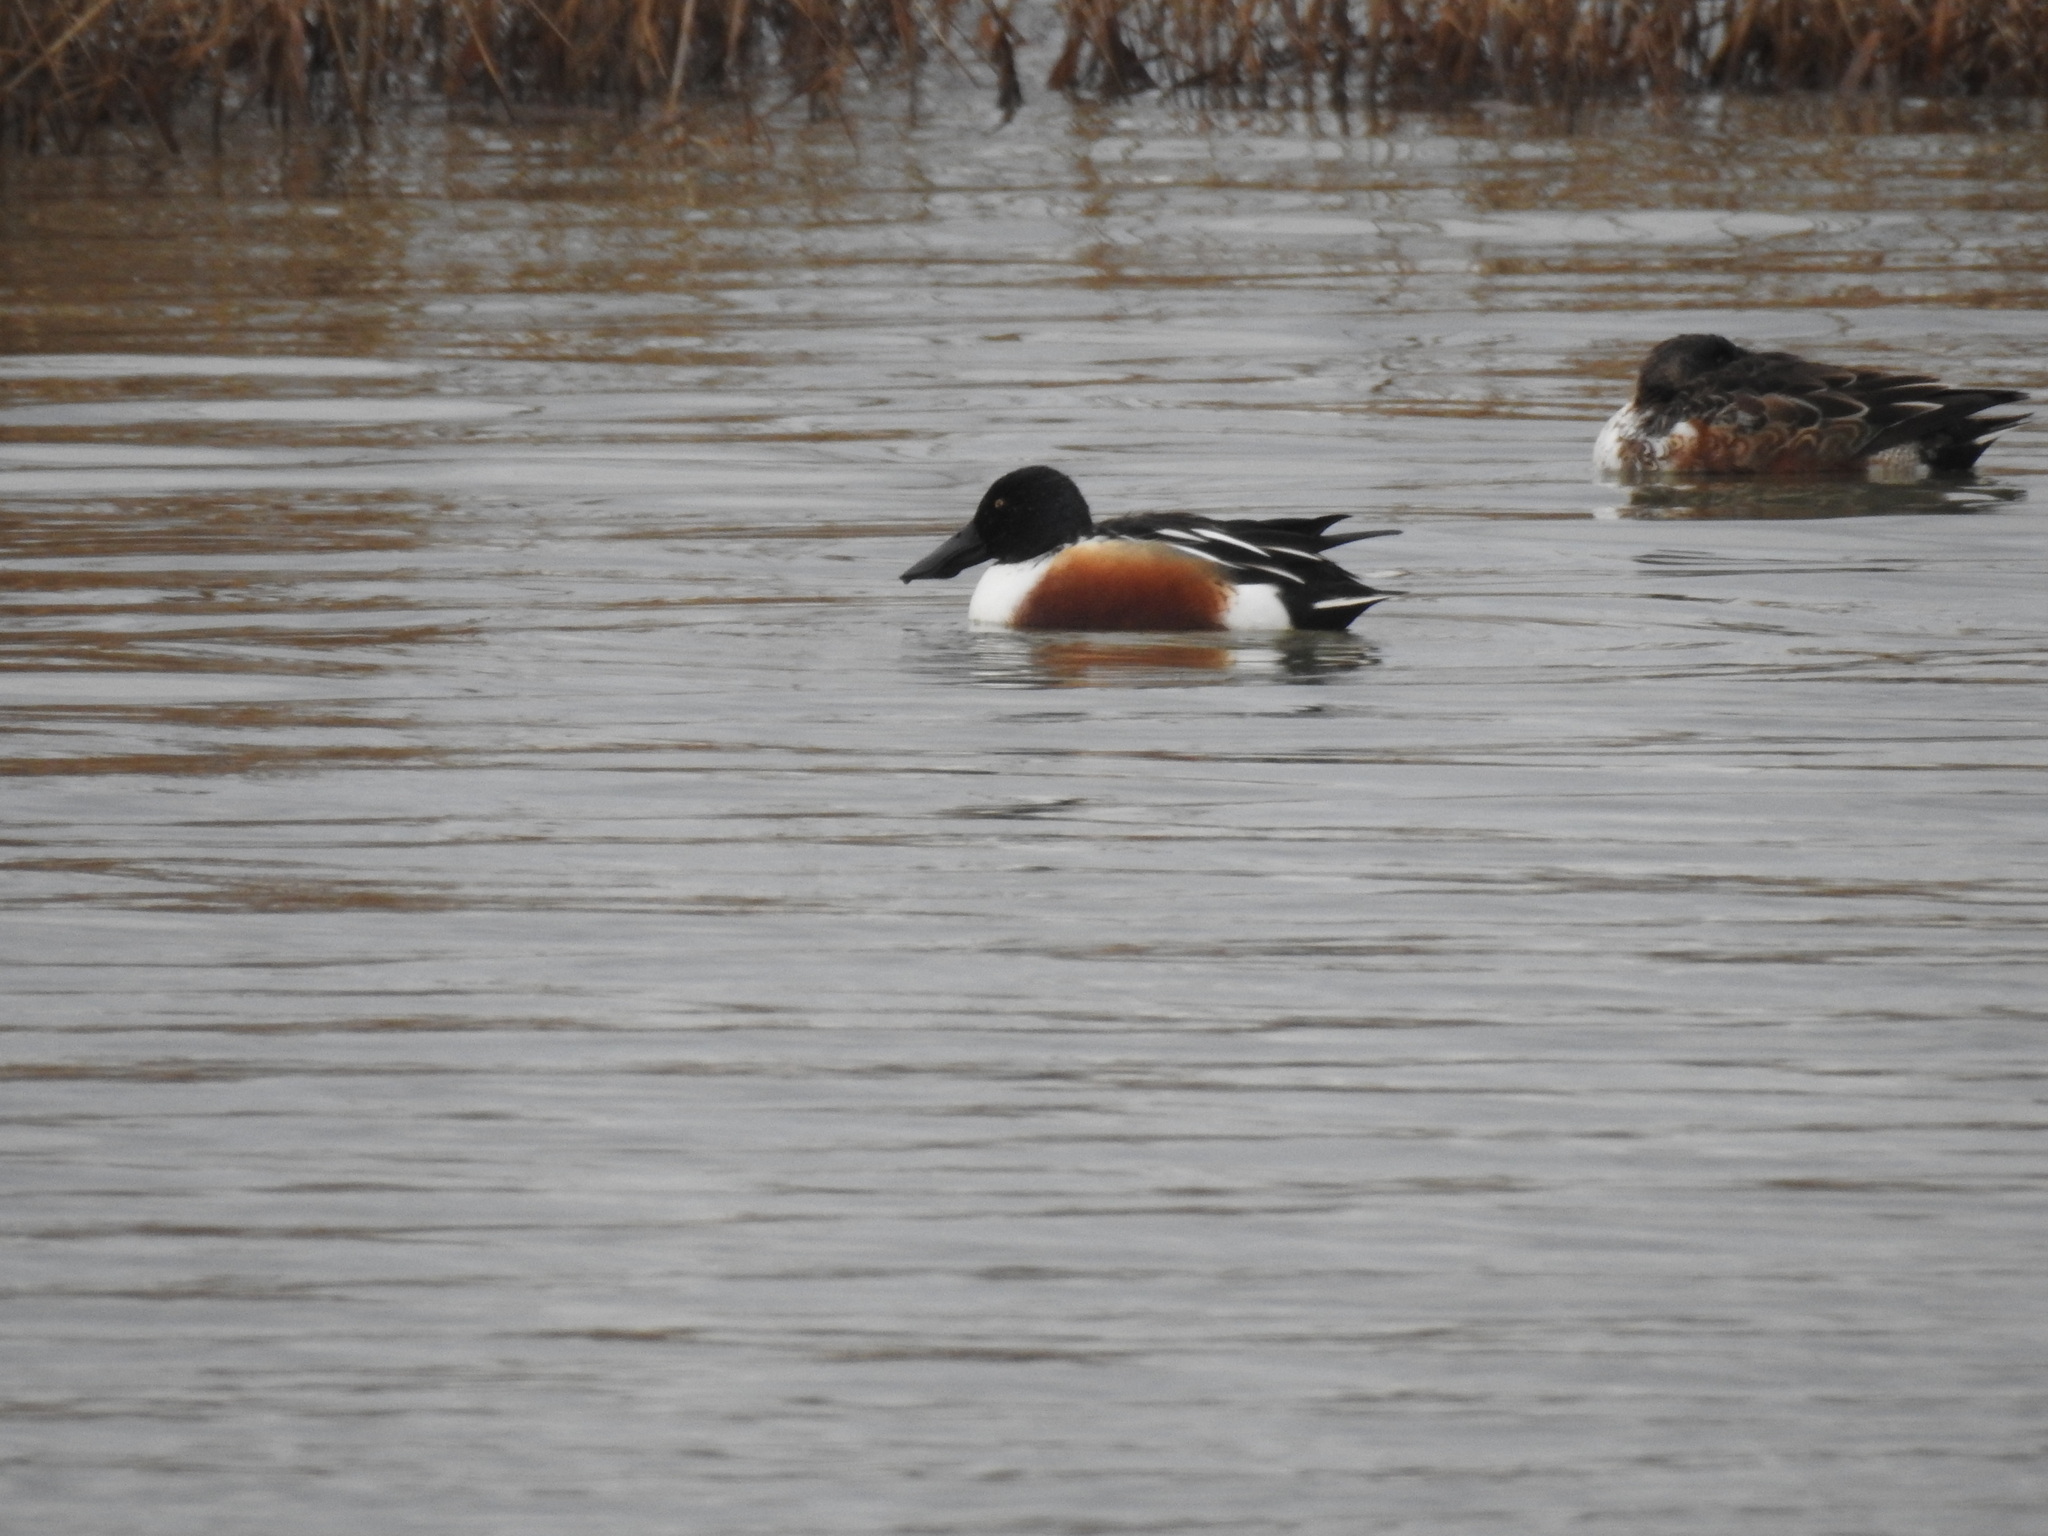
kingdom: Animalia
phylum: Chordata
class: Aves
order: Anseriformes
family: Anatidae
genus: Spatula
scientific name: Spatula clypeata
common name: Northern shoveler
